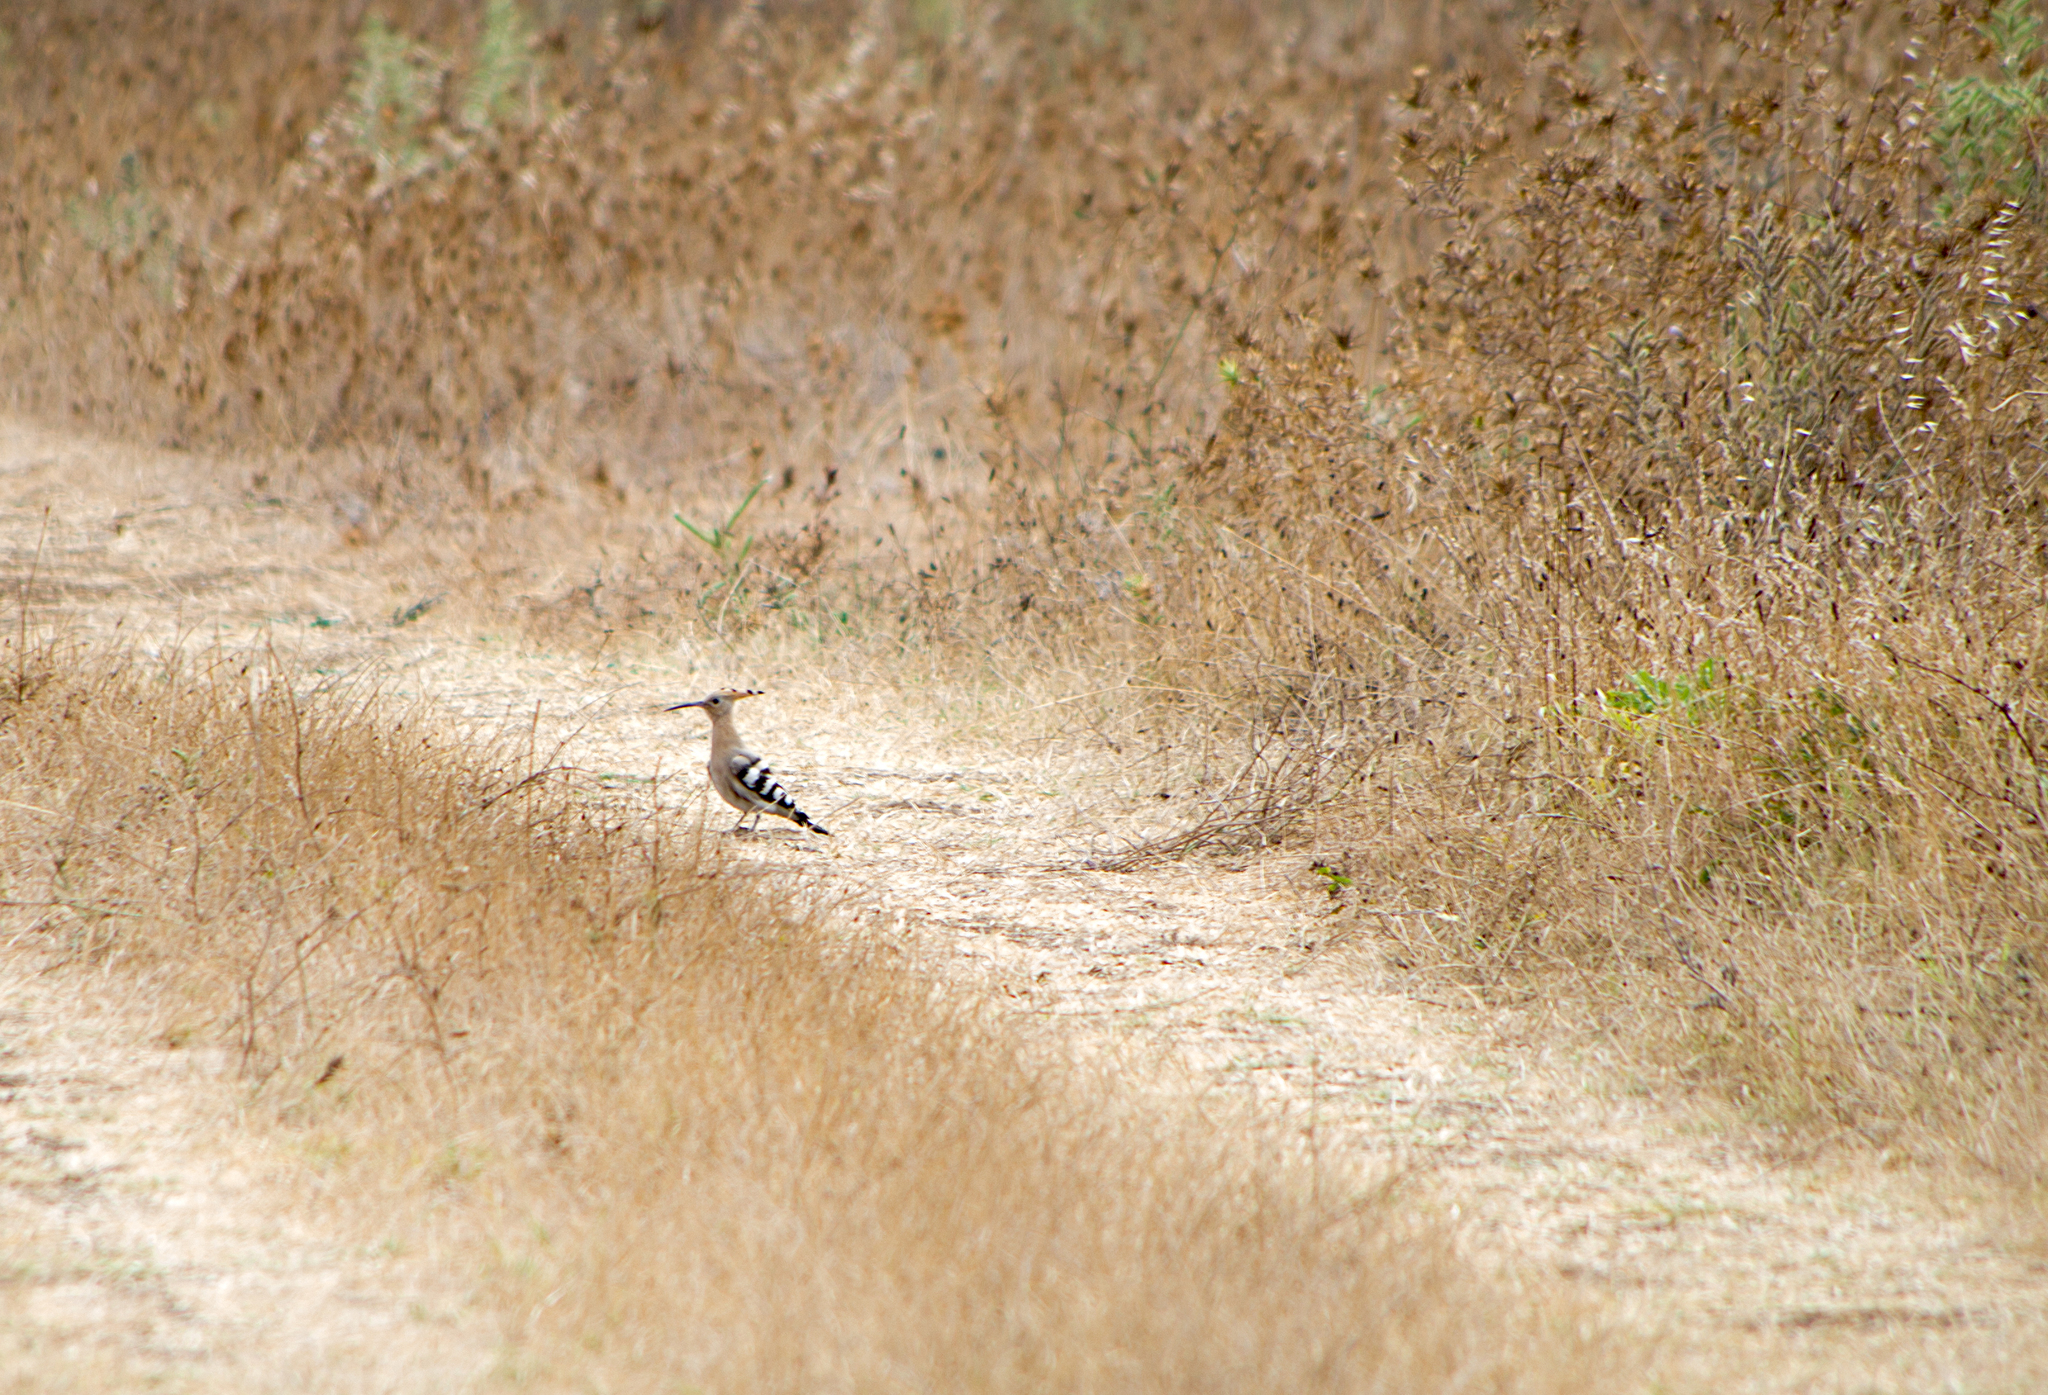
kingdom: Animalia
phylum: Chordata
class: Aves
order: Bucerotiformes
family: Upupidae
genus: Upupa
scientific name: Upupa epops
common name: Eurasian hoopoe
